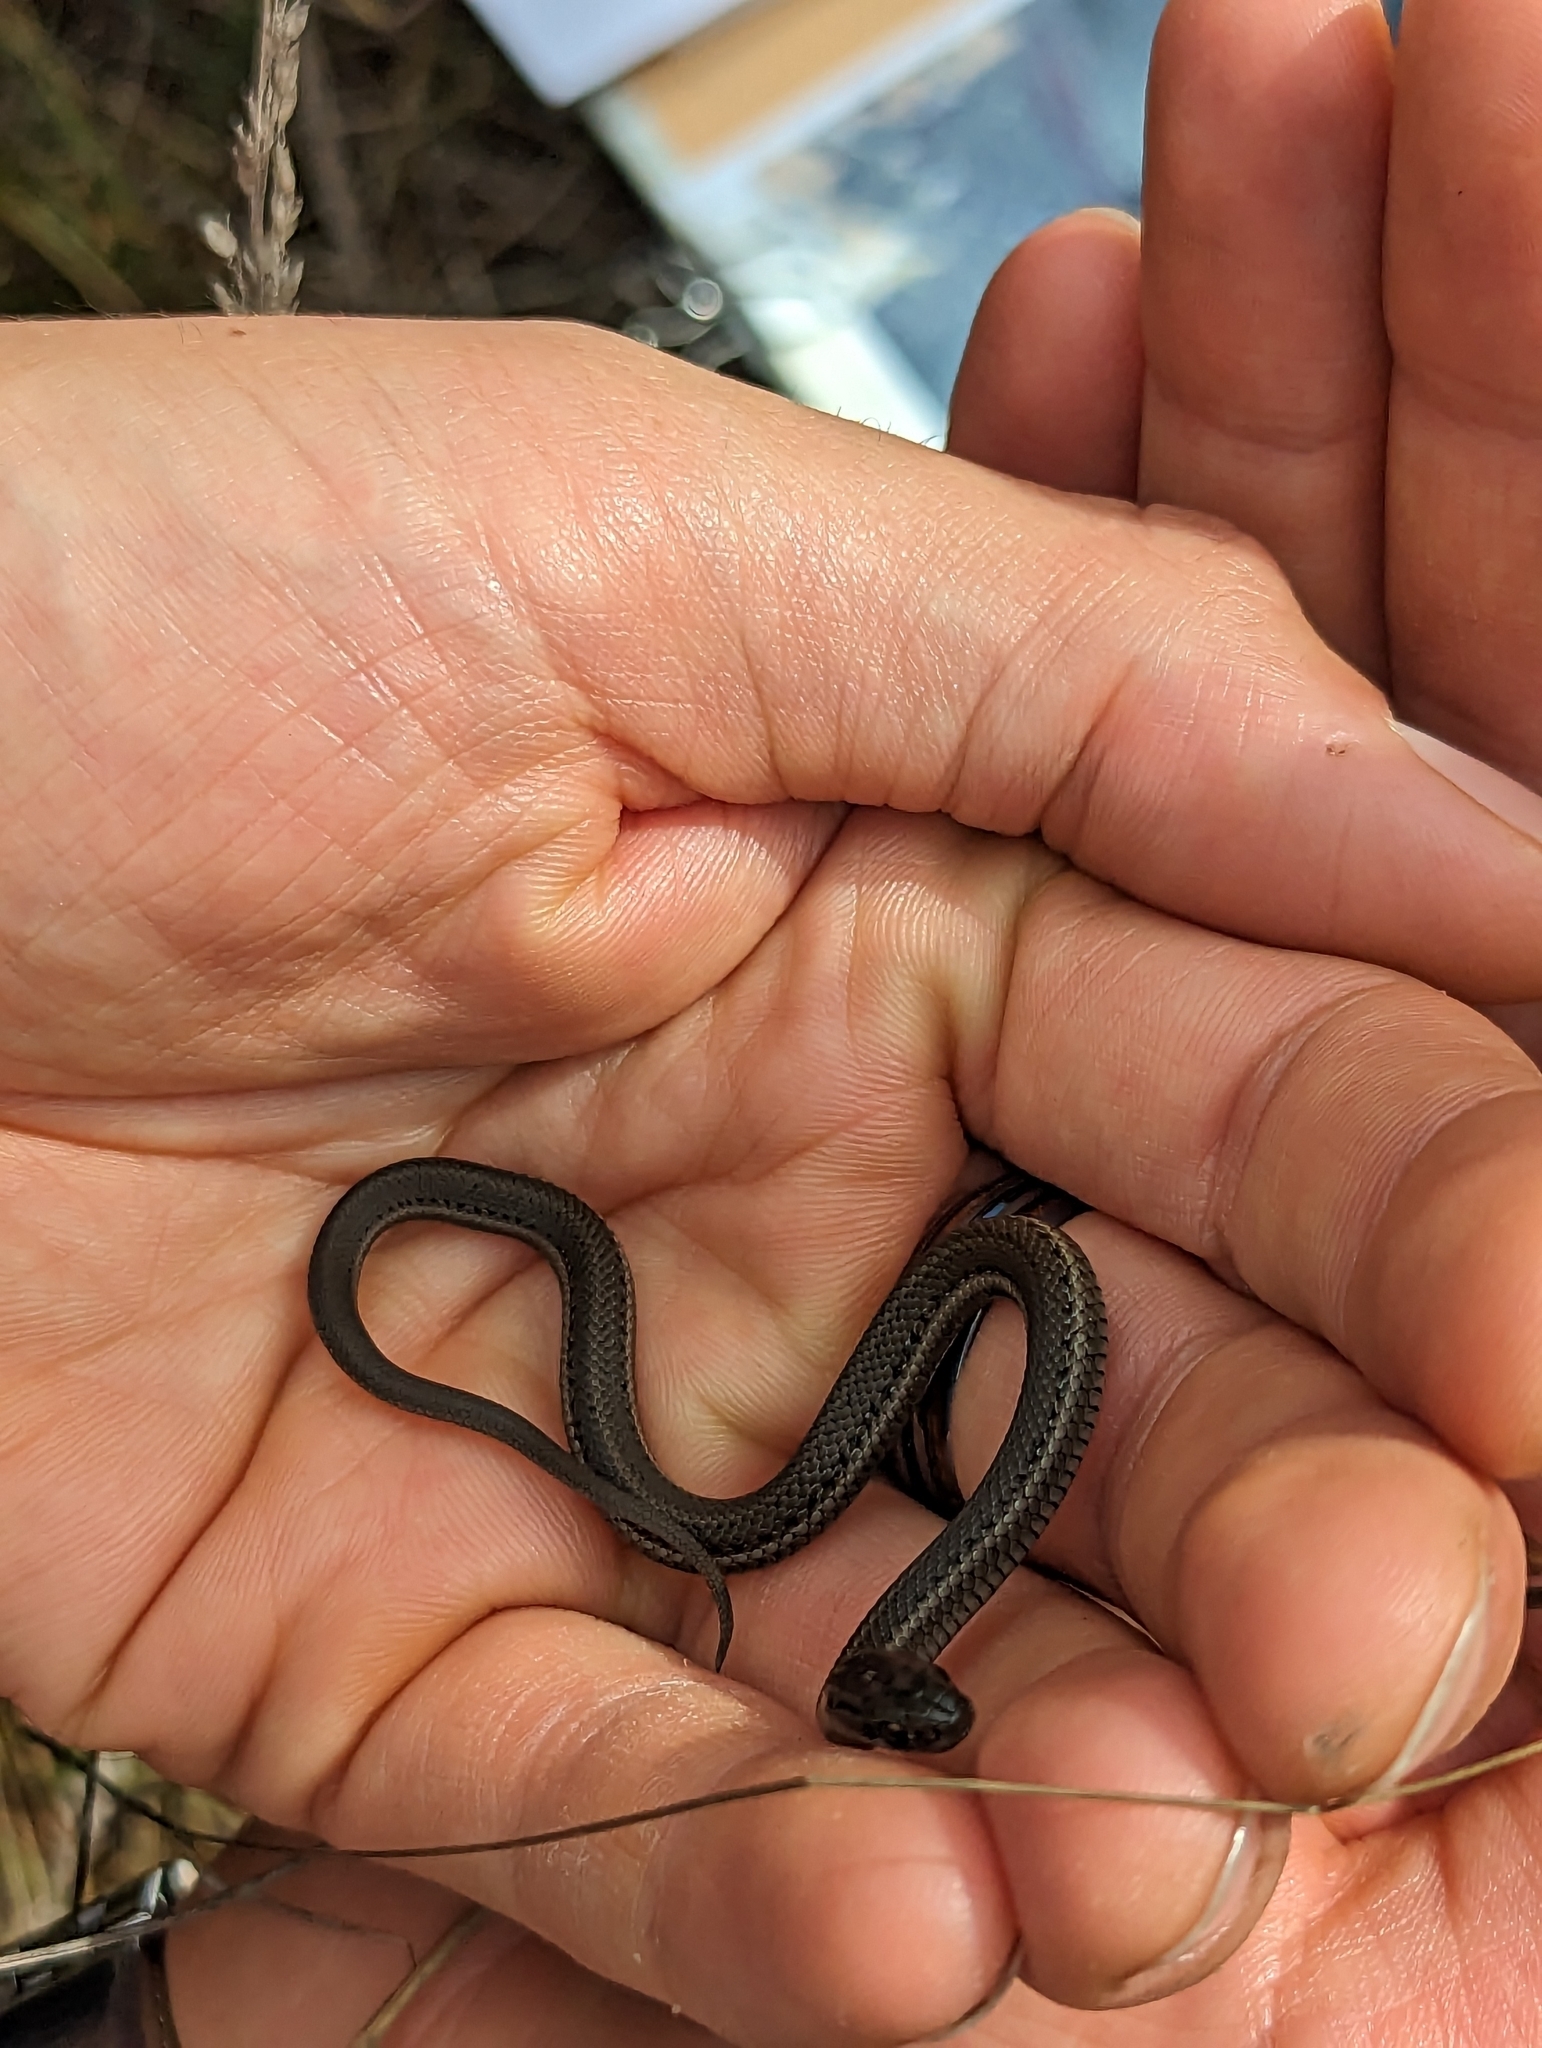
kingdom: Animalia
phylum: Chordata
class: Squamata
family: Colubridae
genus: Thamnophis
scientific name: Thamnophis ordinoides
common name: Northwestern garter snake
